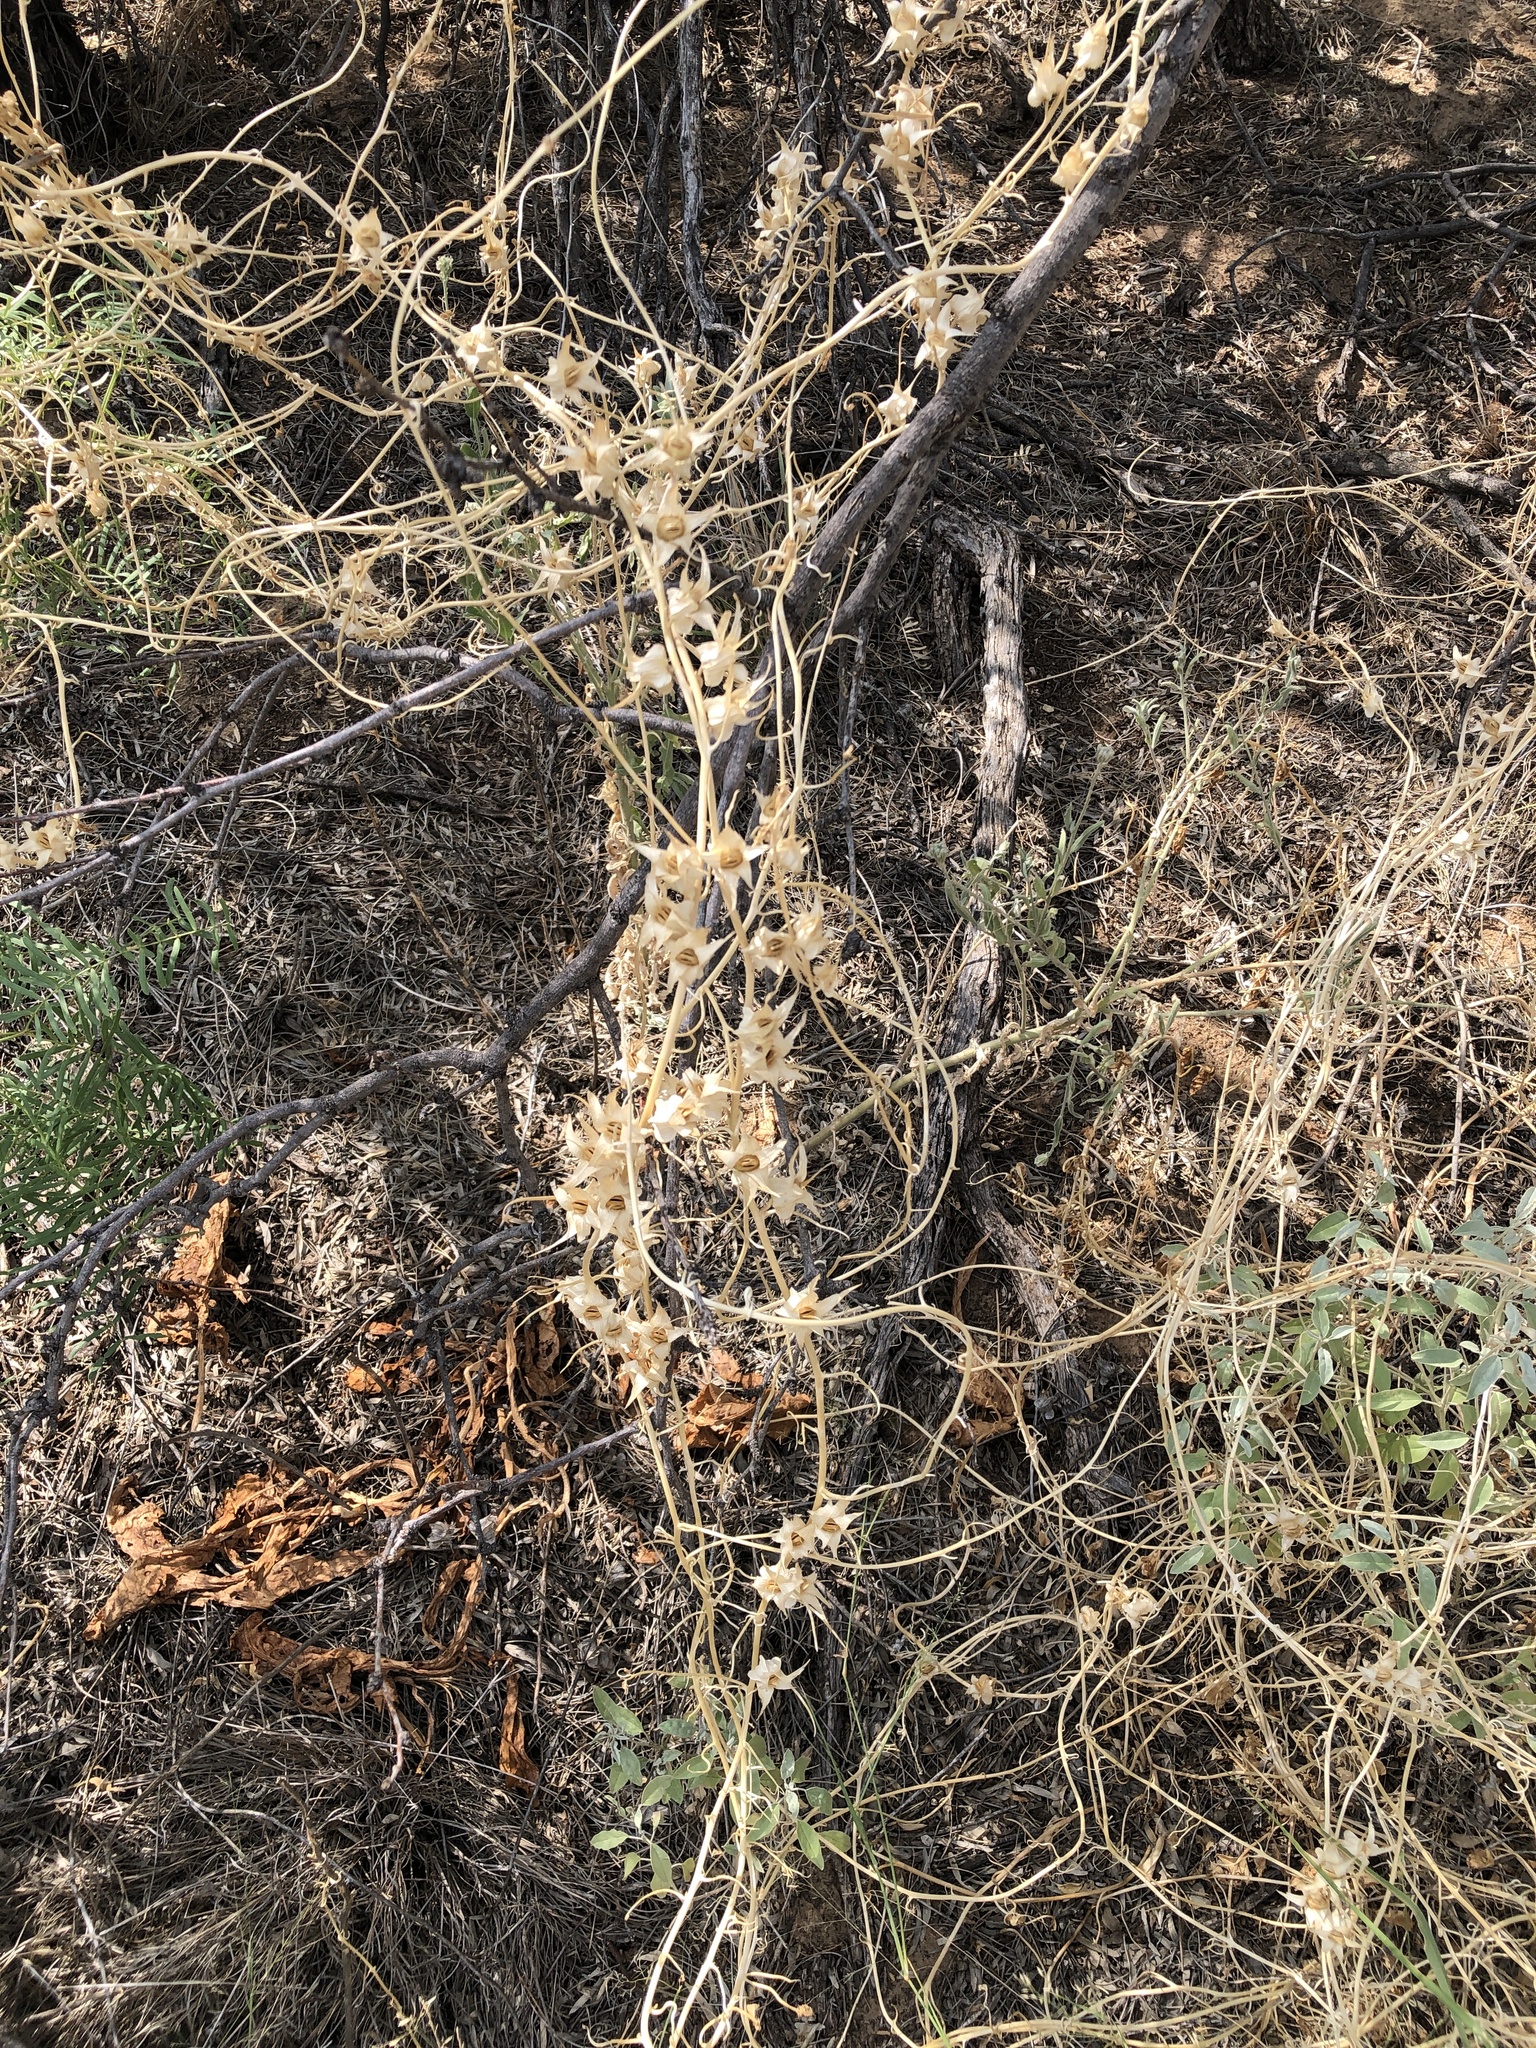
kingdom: Plantae
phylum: Tracheophyta
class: Magnoliopsida
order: Lamiales
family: Plantaginaceae
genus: Epixiphium
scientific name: Epixiphium wislizeni
